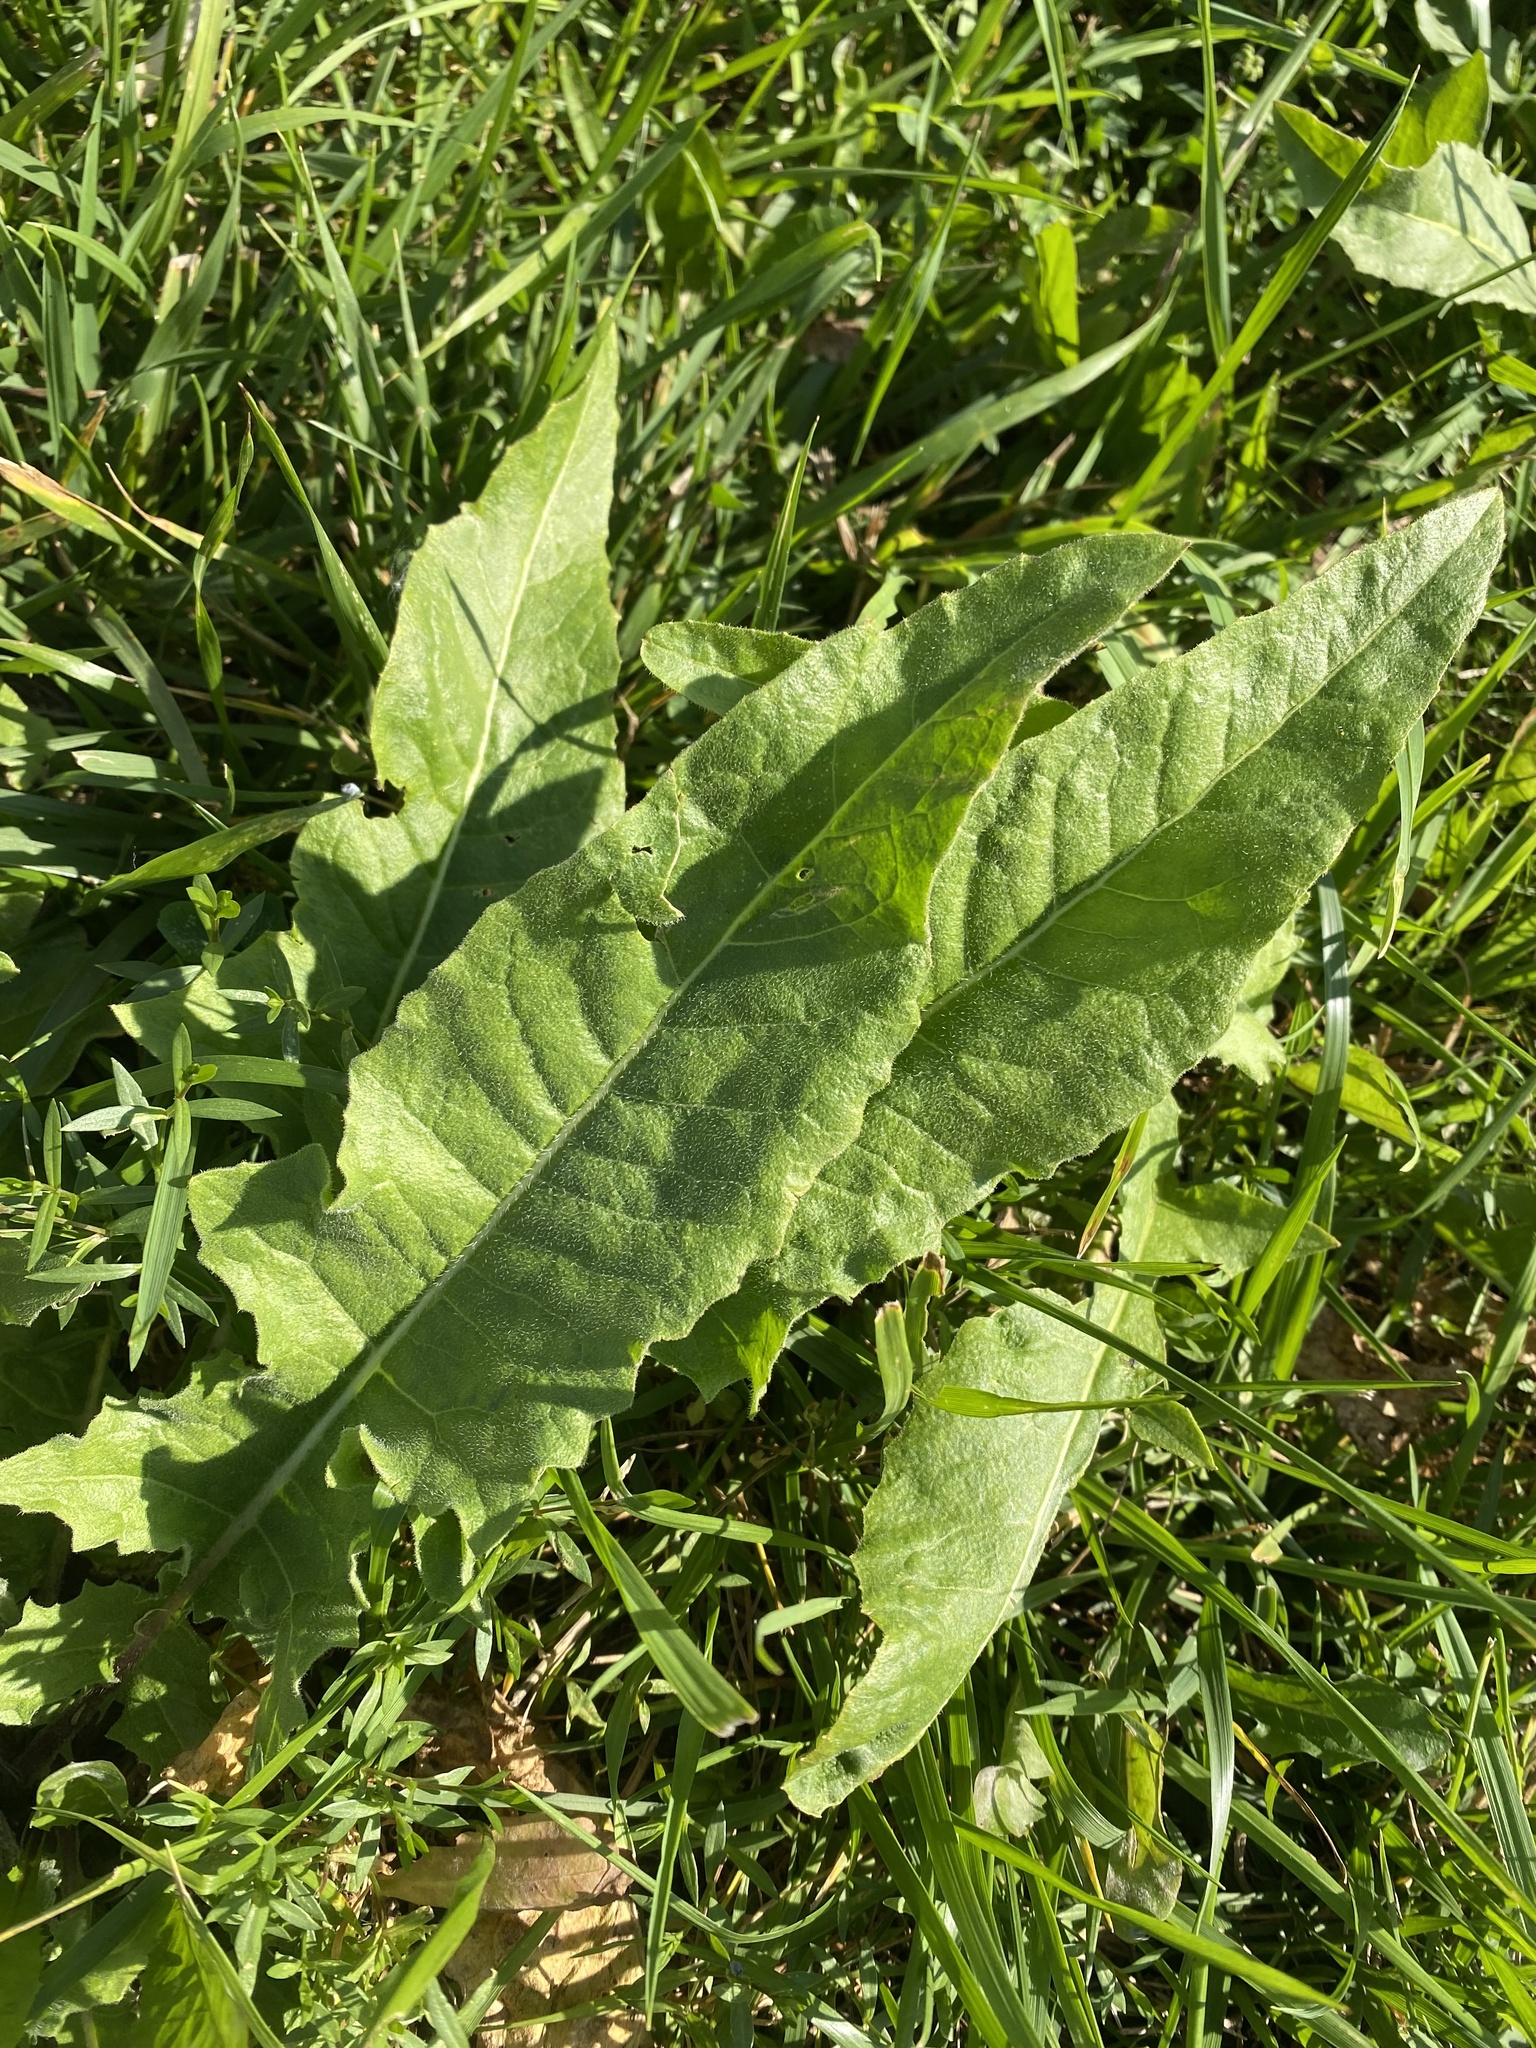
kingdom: Plantae
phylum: Tracheophyta
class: Magnoliopsida
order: Brassicales
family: Brassicaceae
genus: Bunias
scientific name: Bunias orientalis
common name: Warty-cabbage
